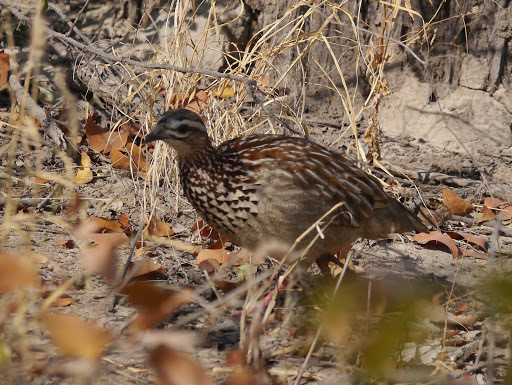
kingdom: Animalia
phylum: Chordata
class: Aves
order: Galliformes
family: Phasianidae
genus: Ortygornis
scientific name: Ortygornis sephaena
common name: Crested francolin
